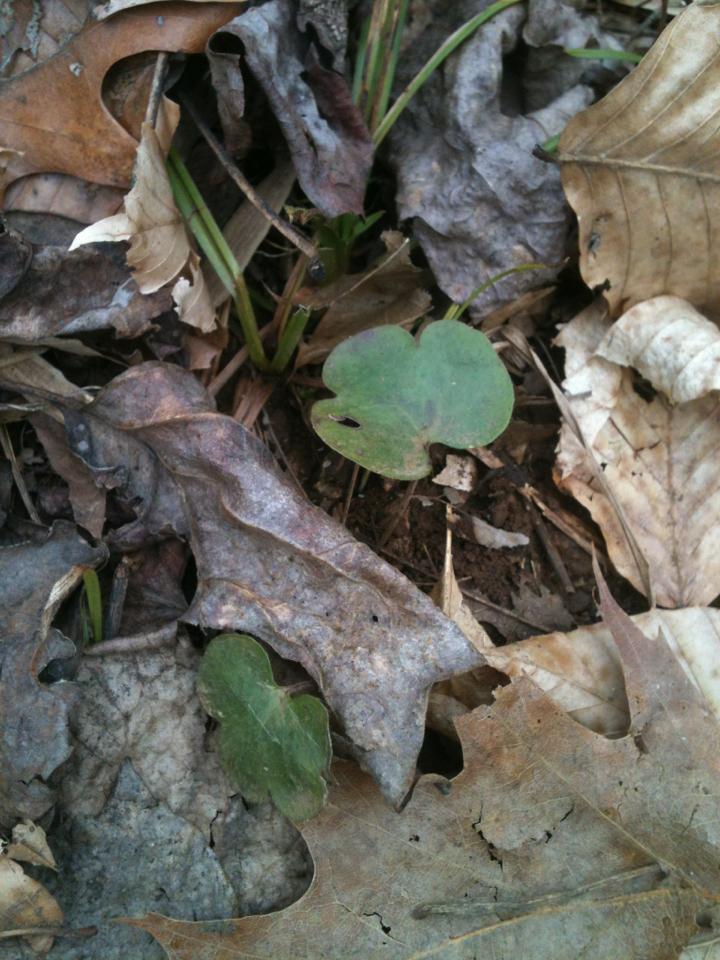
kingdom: Plantae
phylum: Tracheophyta
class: Magnoliopsida
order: Ranunculales
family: Ranunculaceae
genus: Hepatica
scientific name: Hepatica americana
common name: American hepatica
